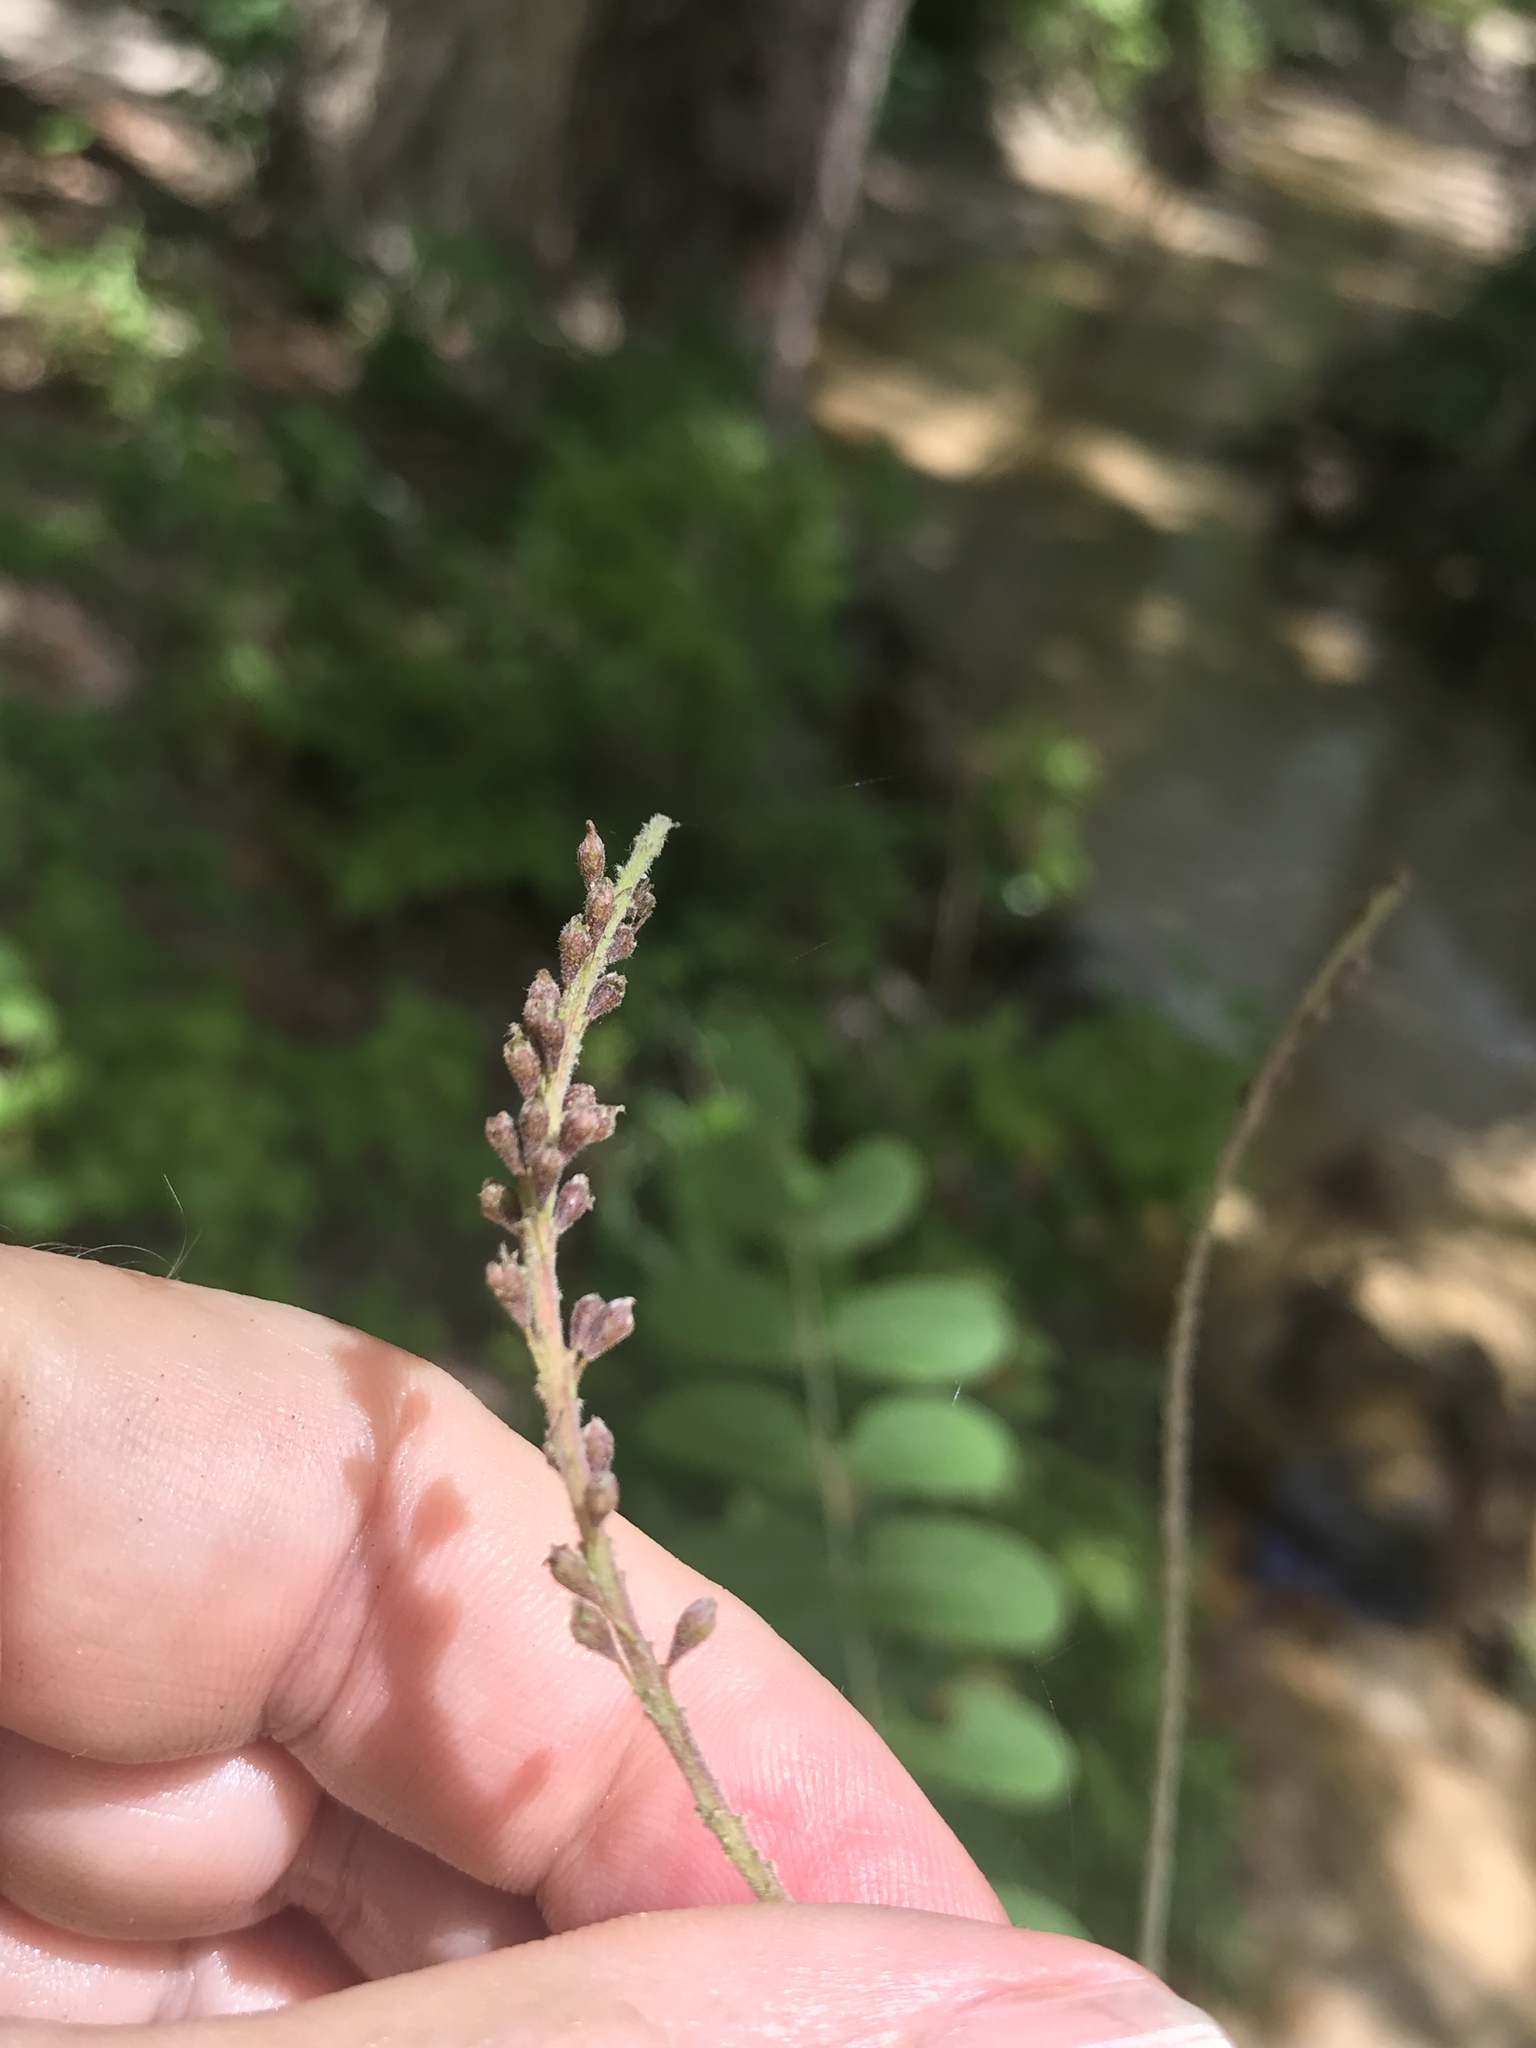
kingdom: Plantae
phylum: Tracheophyta
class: Magnoliopsida
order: Fabales
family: Fabaceae
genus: Amorpha
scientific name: Amorpha paniculata
